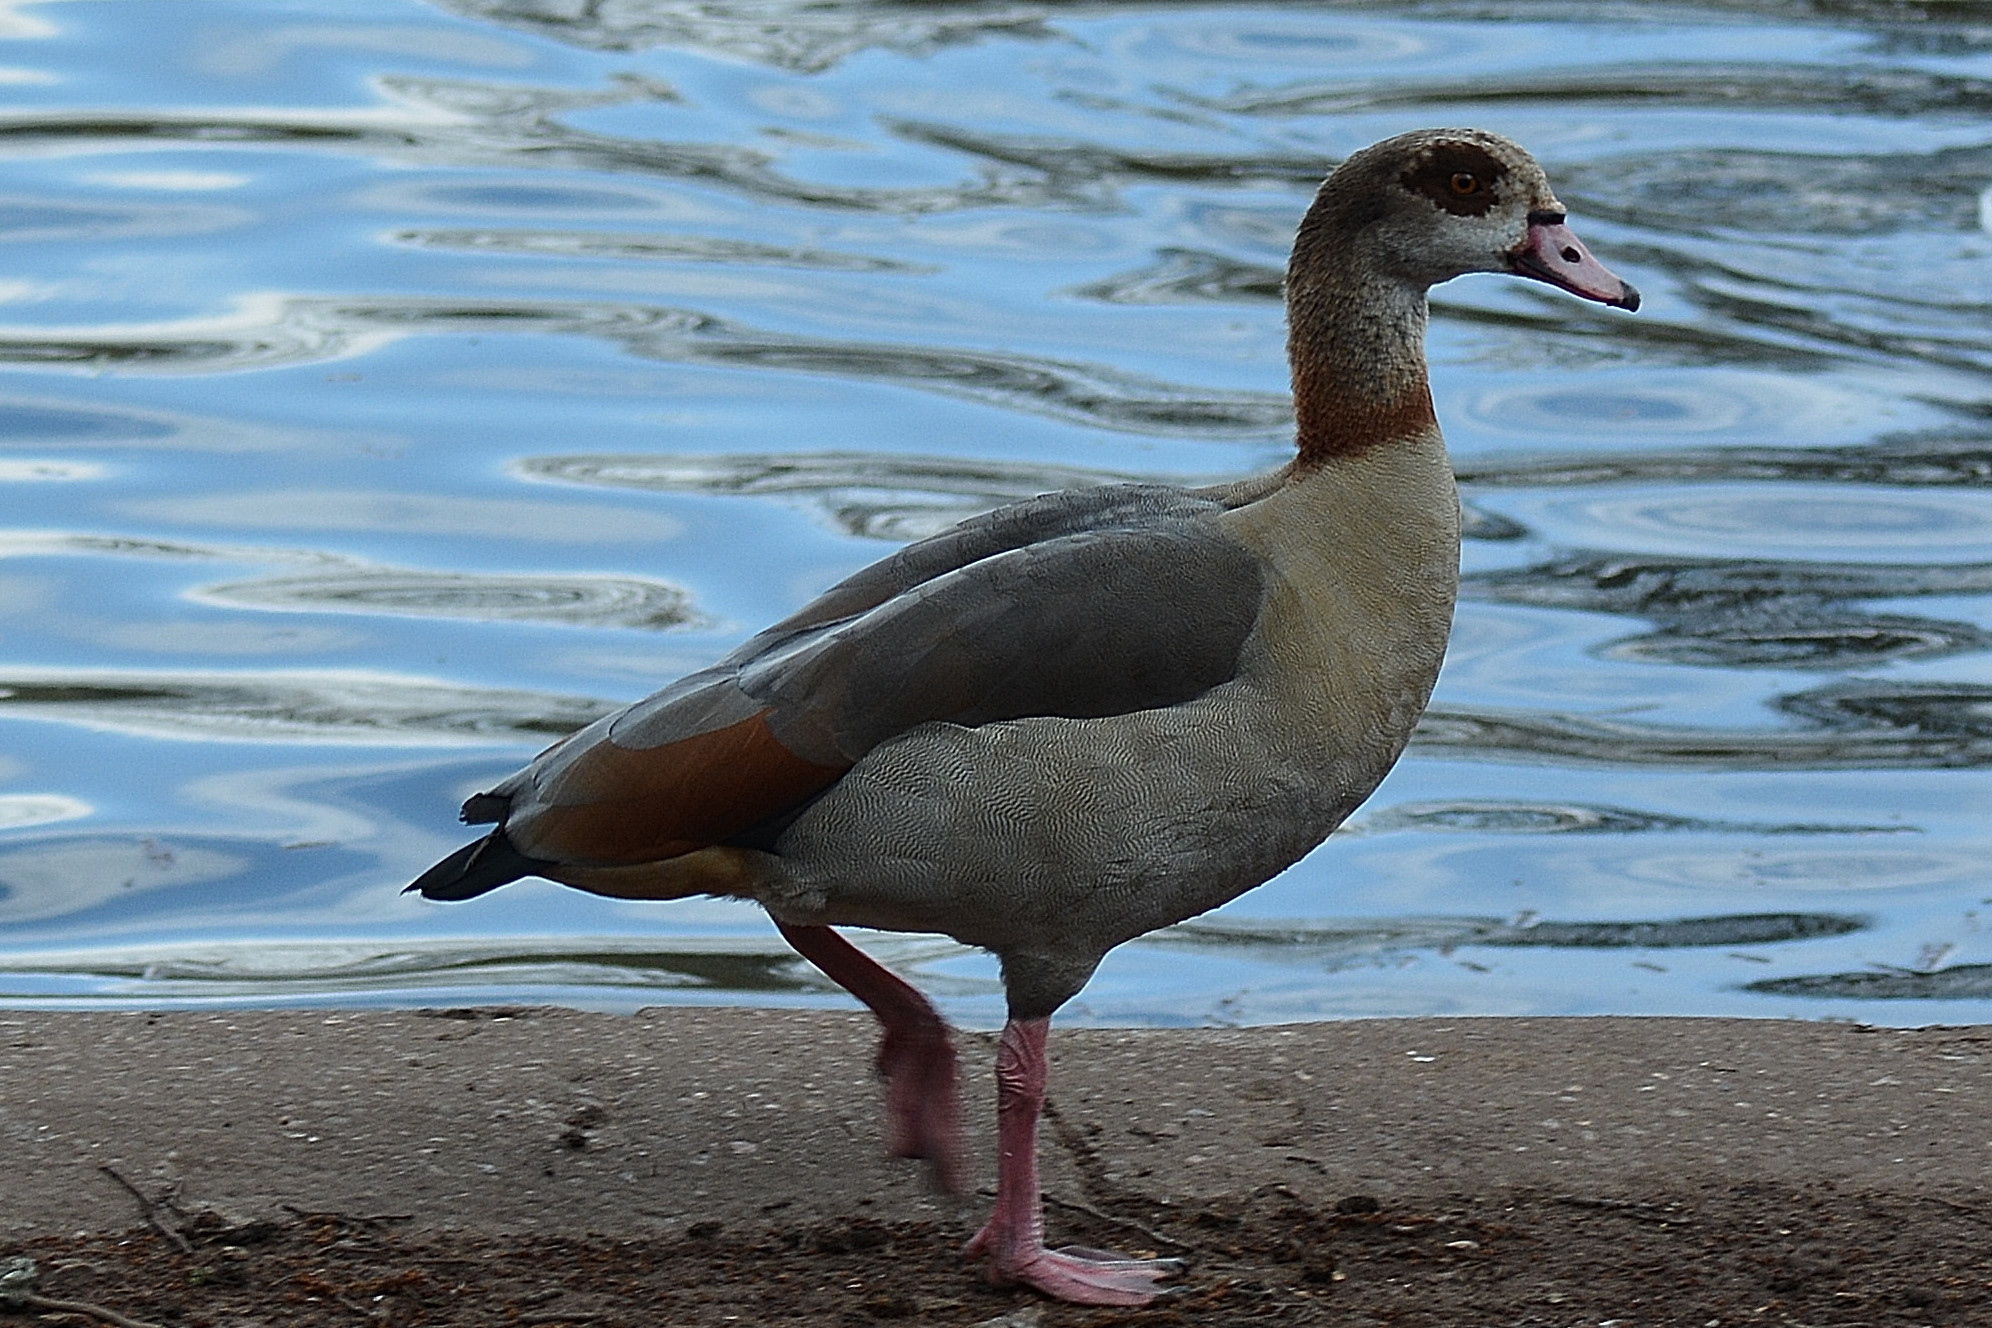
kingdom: Animalia
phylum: Chordata
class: Aves
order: Anseriformes
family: Anatidae
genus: Alopochen
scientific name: Alopochen aegyptiaca
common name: Egyptian goose
